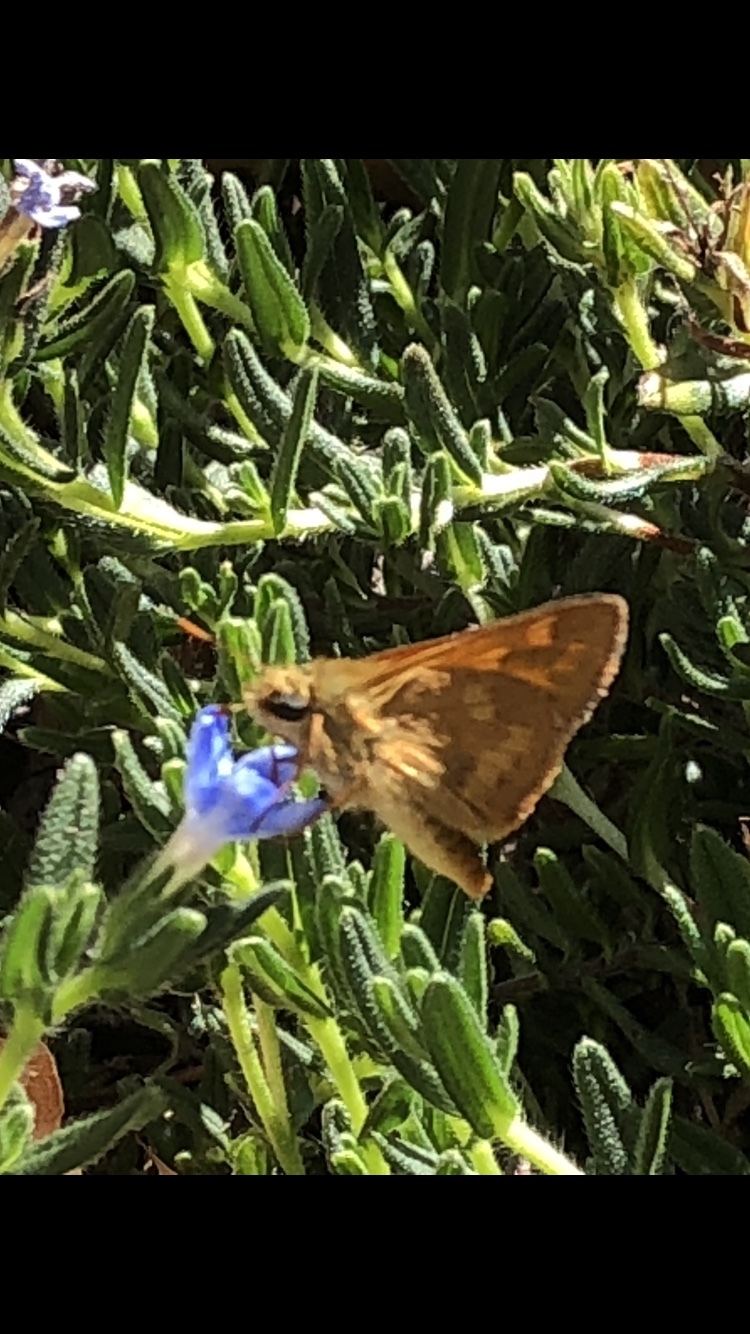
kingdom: Animalia
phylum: Arthropoda
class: Insecta
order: Lepidoptera
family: Hesperiidae
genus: Ochlodes
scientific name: Ochlodes sylvanoides
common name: Woodland skipper
